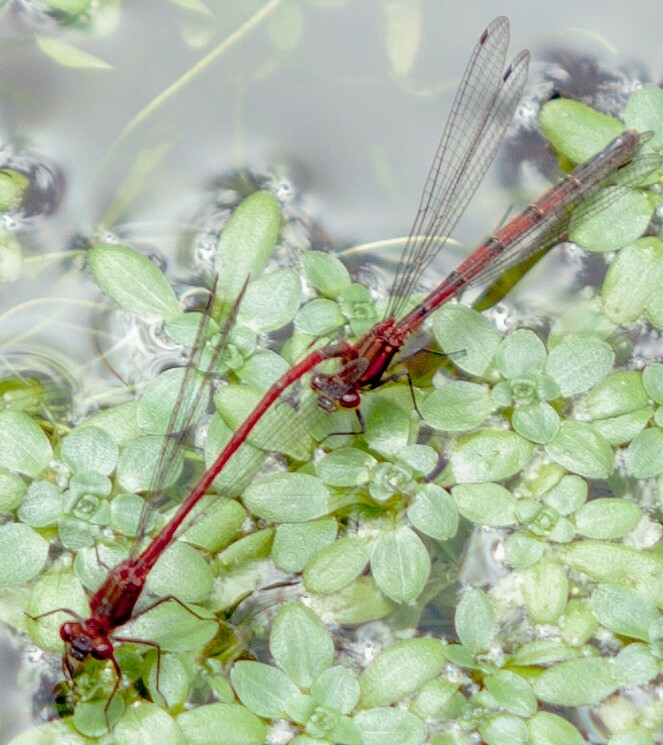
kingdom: Animalia
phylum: Arthropoda
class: Insecta
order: Odonata
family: Coenagrionidae
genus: Pyrrhosoma
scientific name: Pyrrhosoma nymphula
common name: Large red damsel
